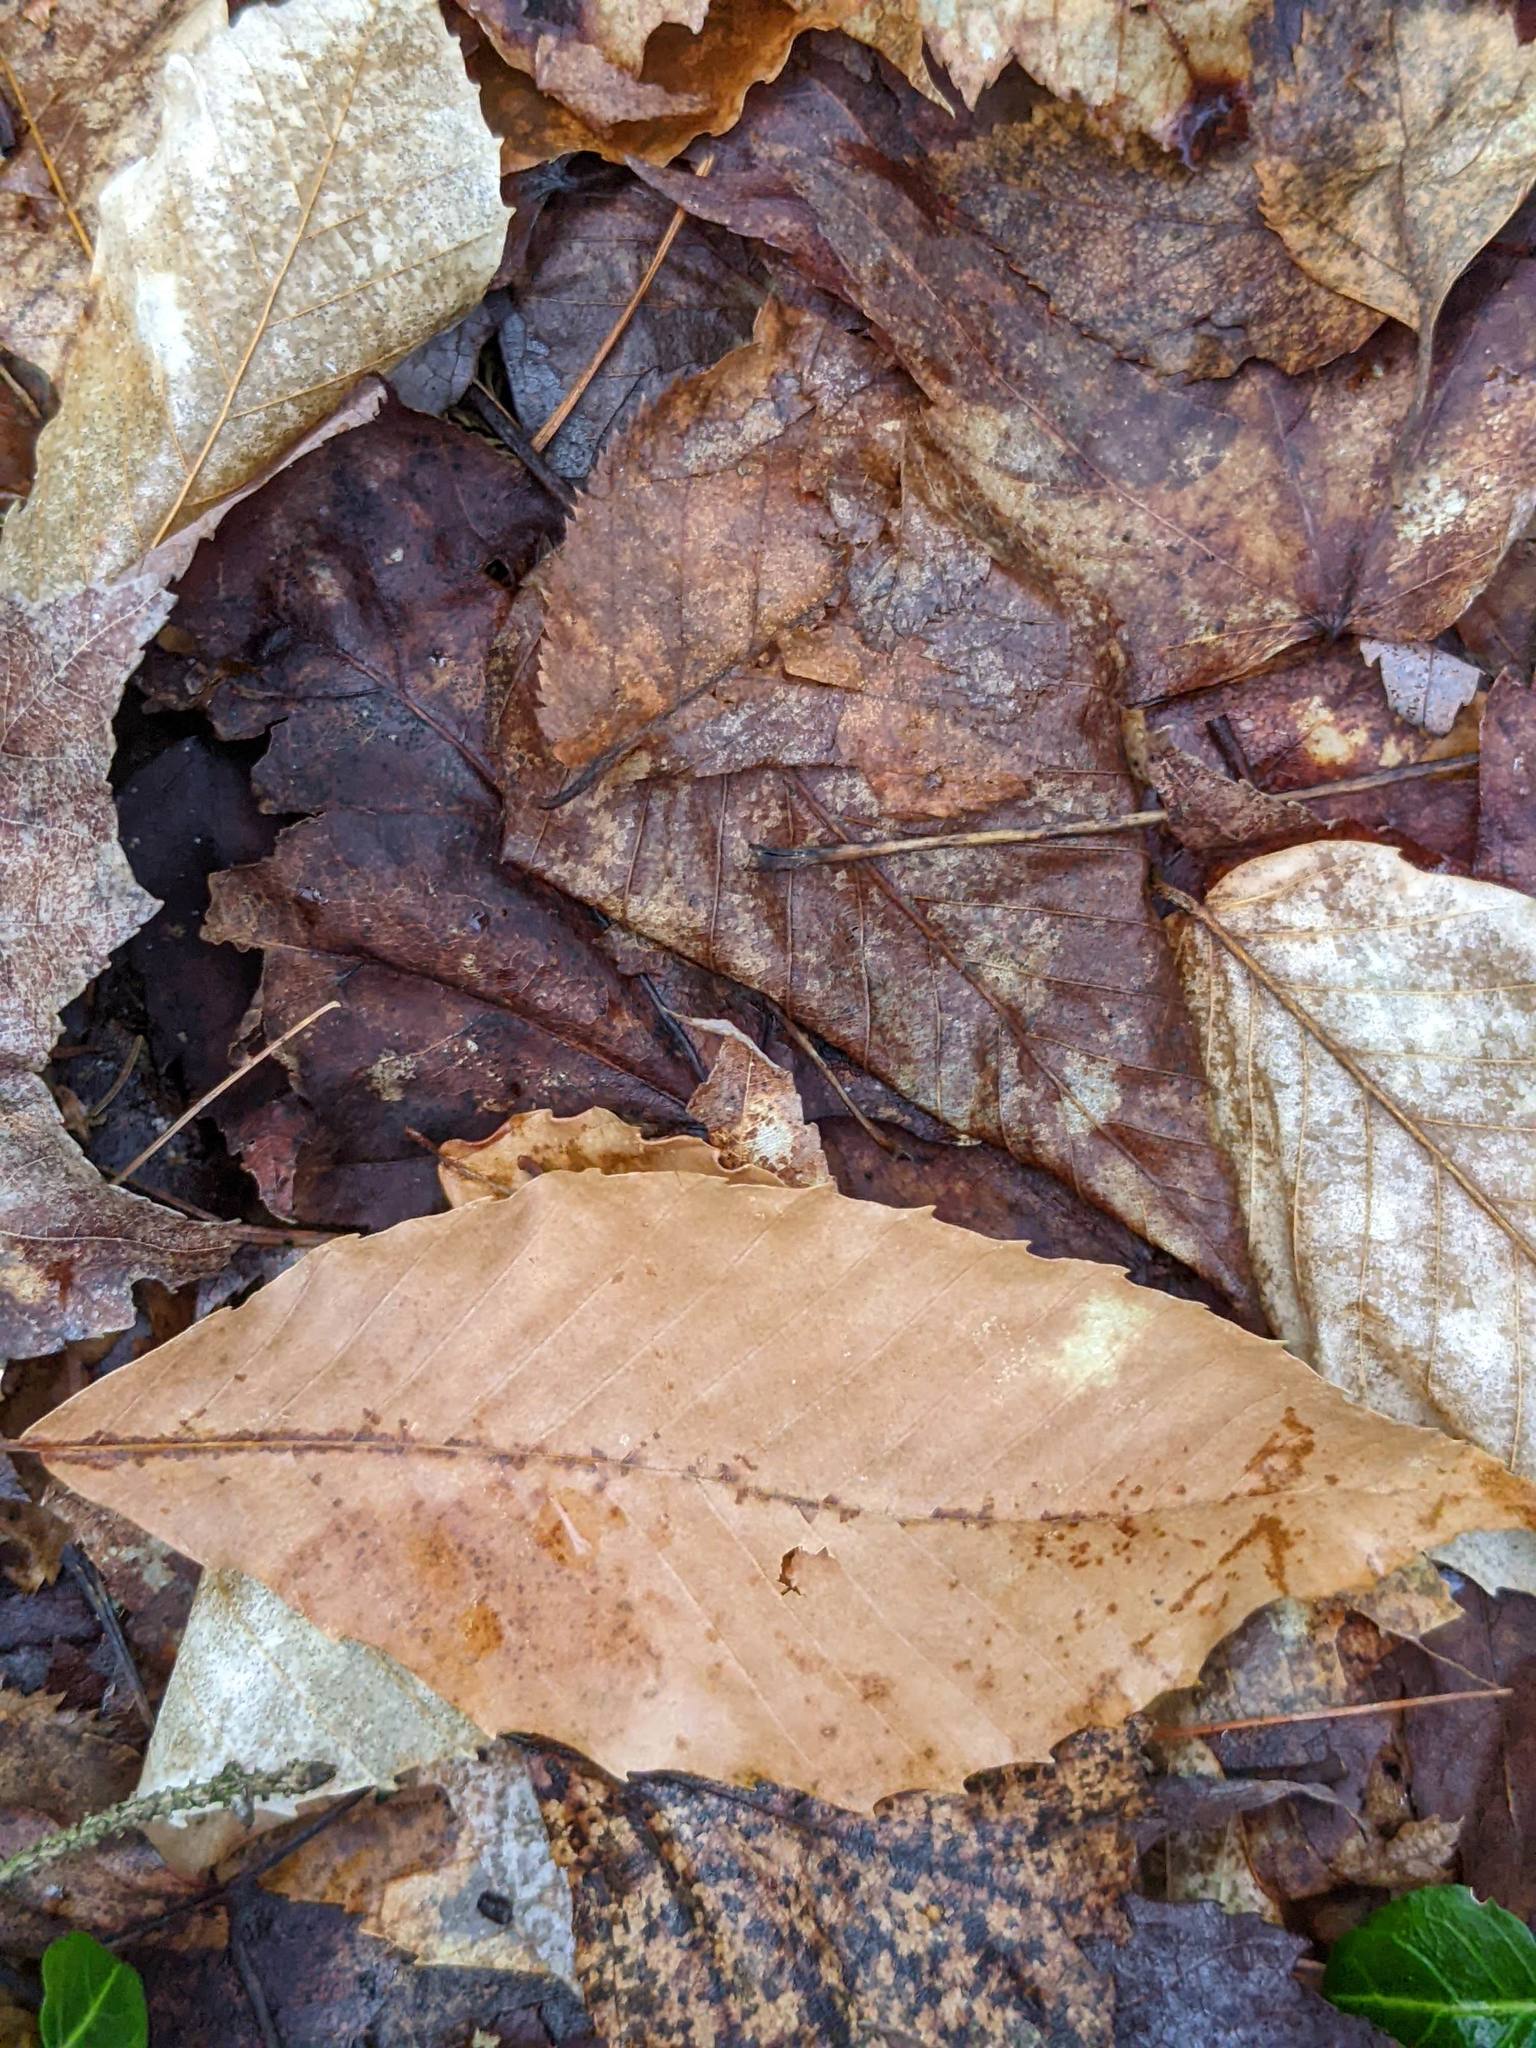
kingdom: Plantae
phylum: Tracheophyta
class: Magnoliopsida
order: Fagales
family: Fagaceae
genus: Fagus
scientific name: Fagus grandifolia
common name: American beech
